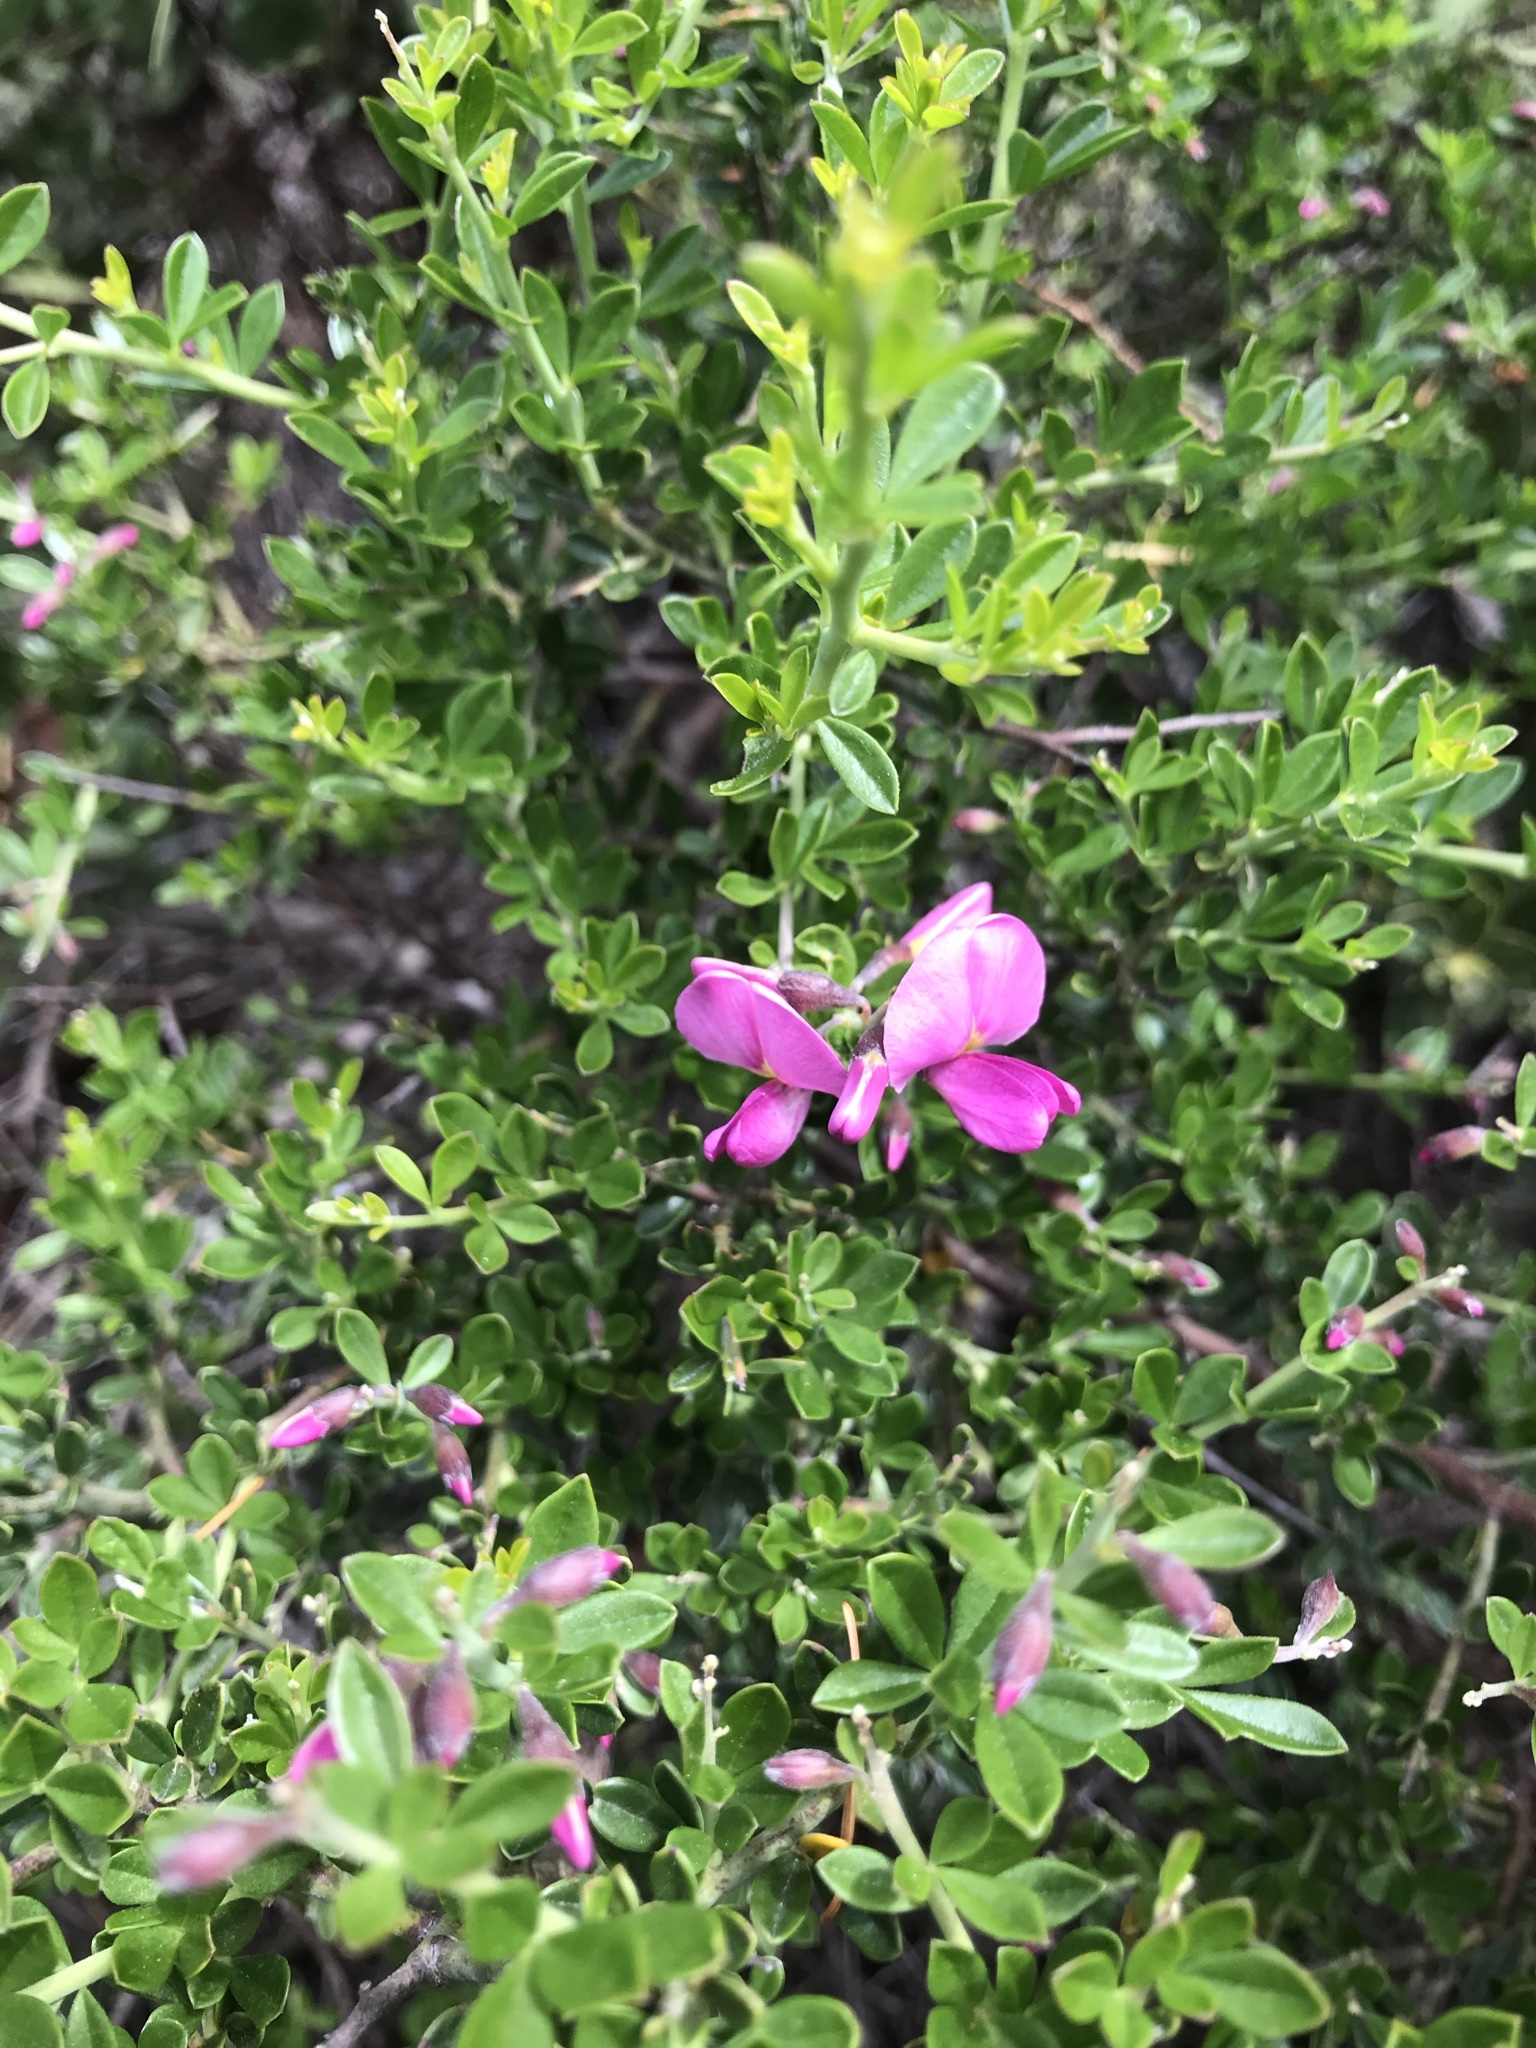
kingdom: Plantae
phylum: Tracheophyta
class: Magnoliopsida
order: Fabales
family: Fabaceae
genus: Pickeringia
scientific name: Pickeringia montana
